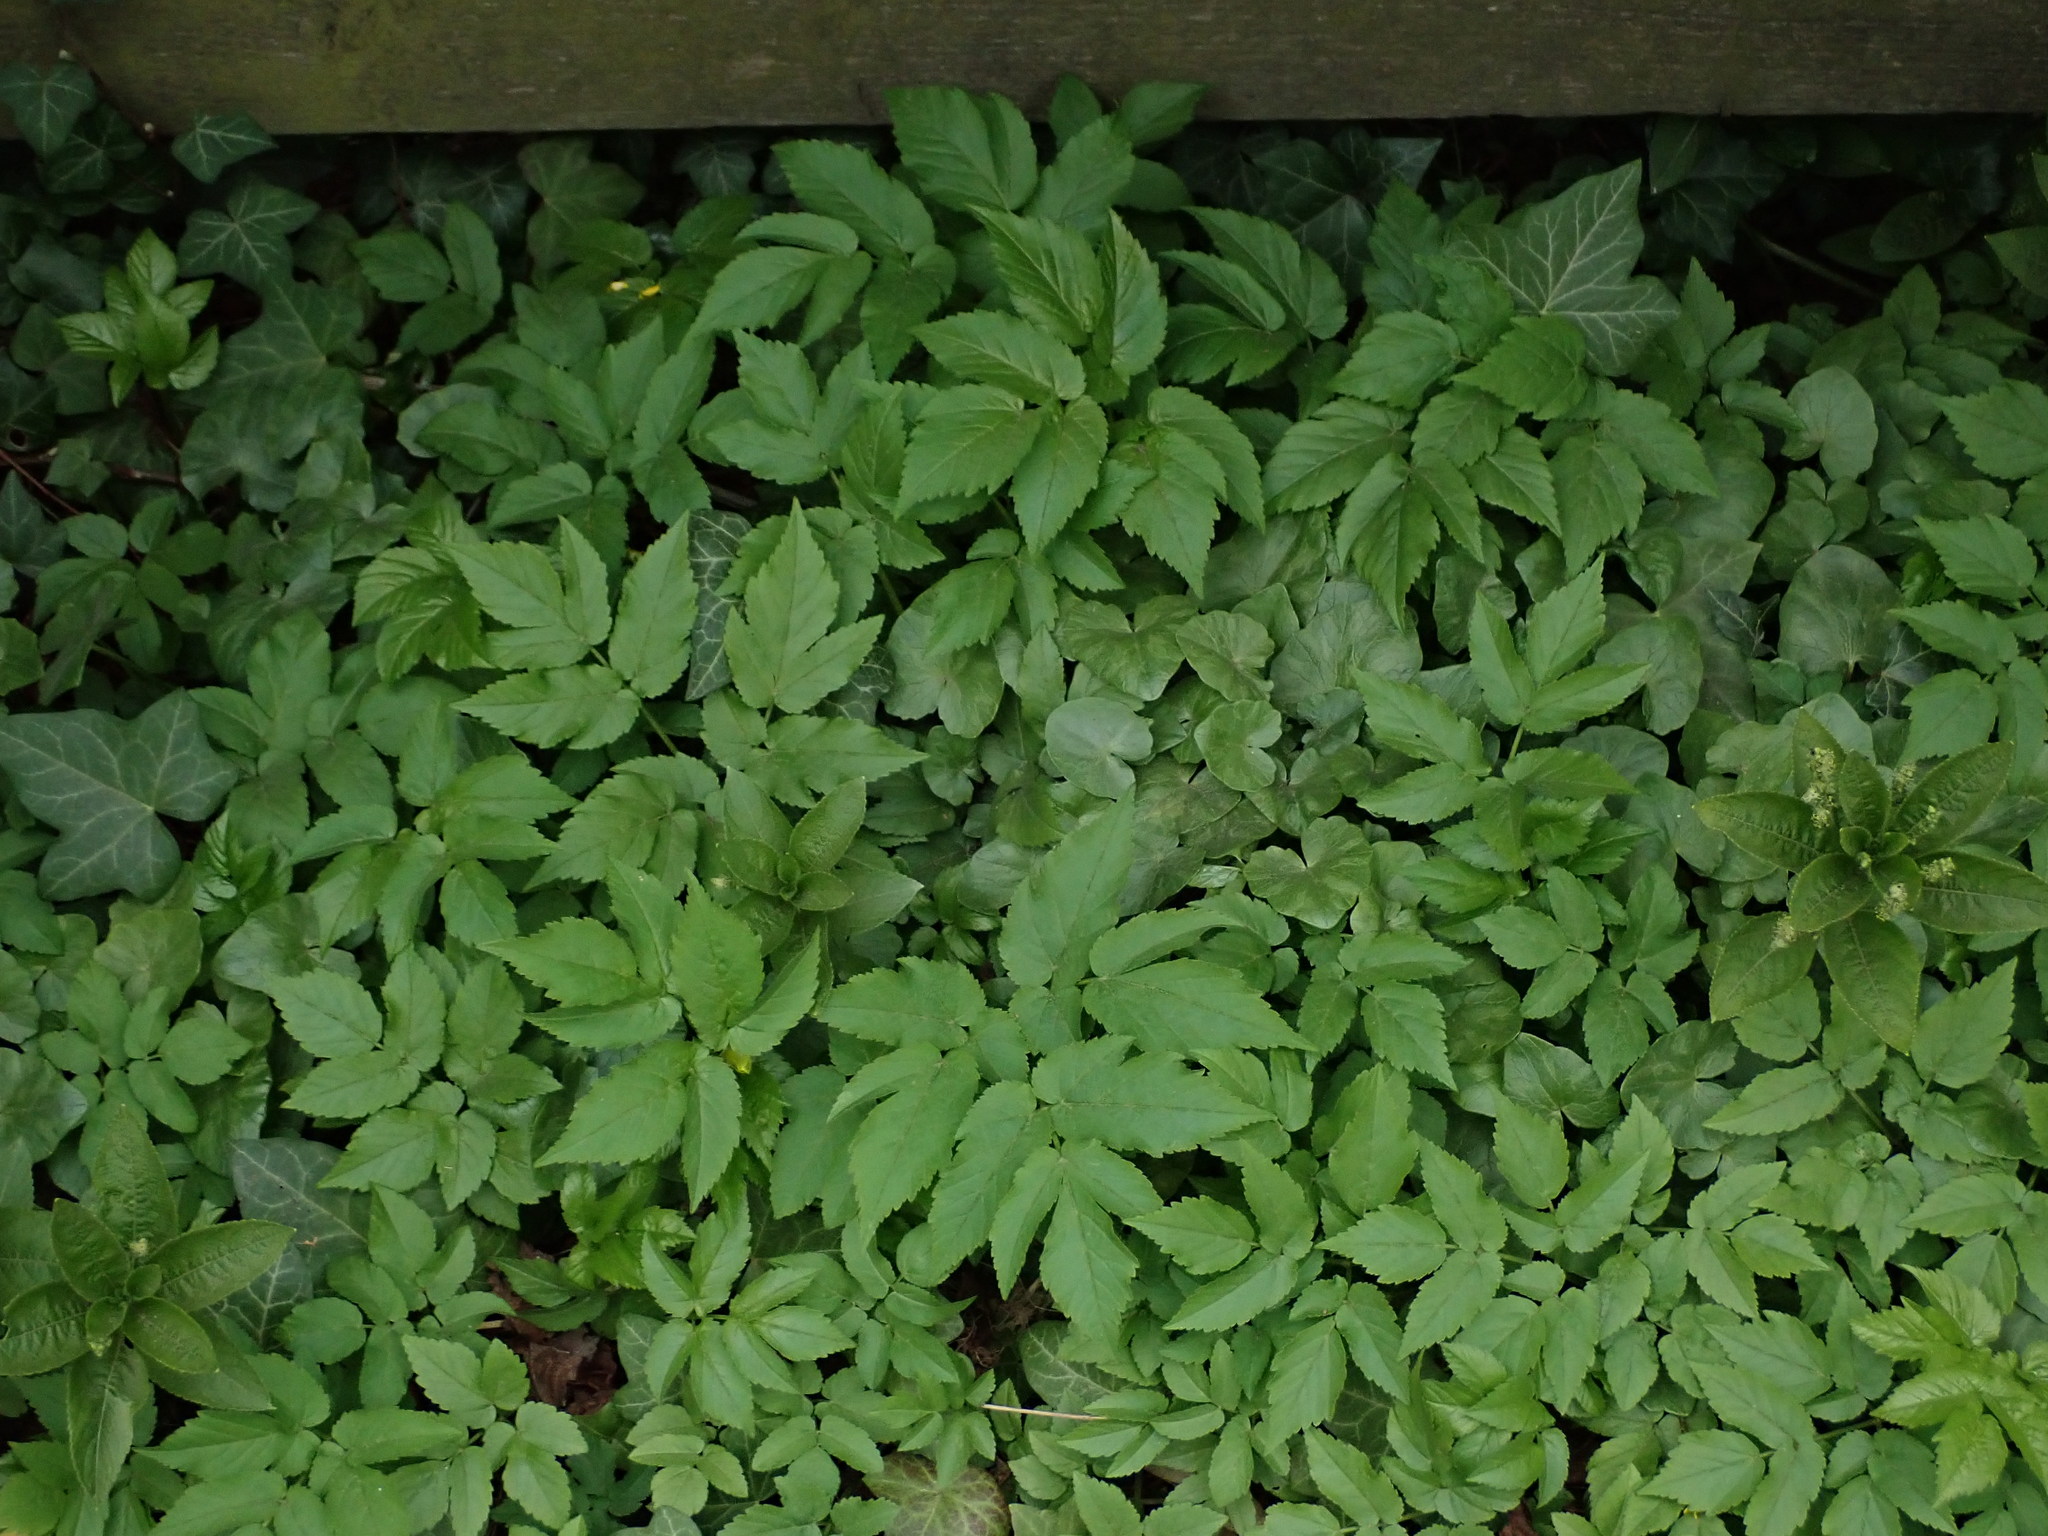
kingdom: Plantae
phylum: Tracheophyta
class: Magnoliopsida
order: Apiales
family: Apiaceae
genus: Aegopodium
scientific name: Aegopodium podagraria
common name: Ground-elder
